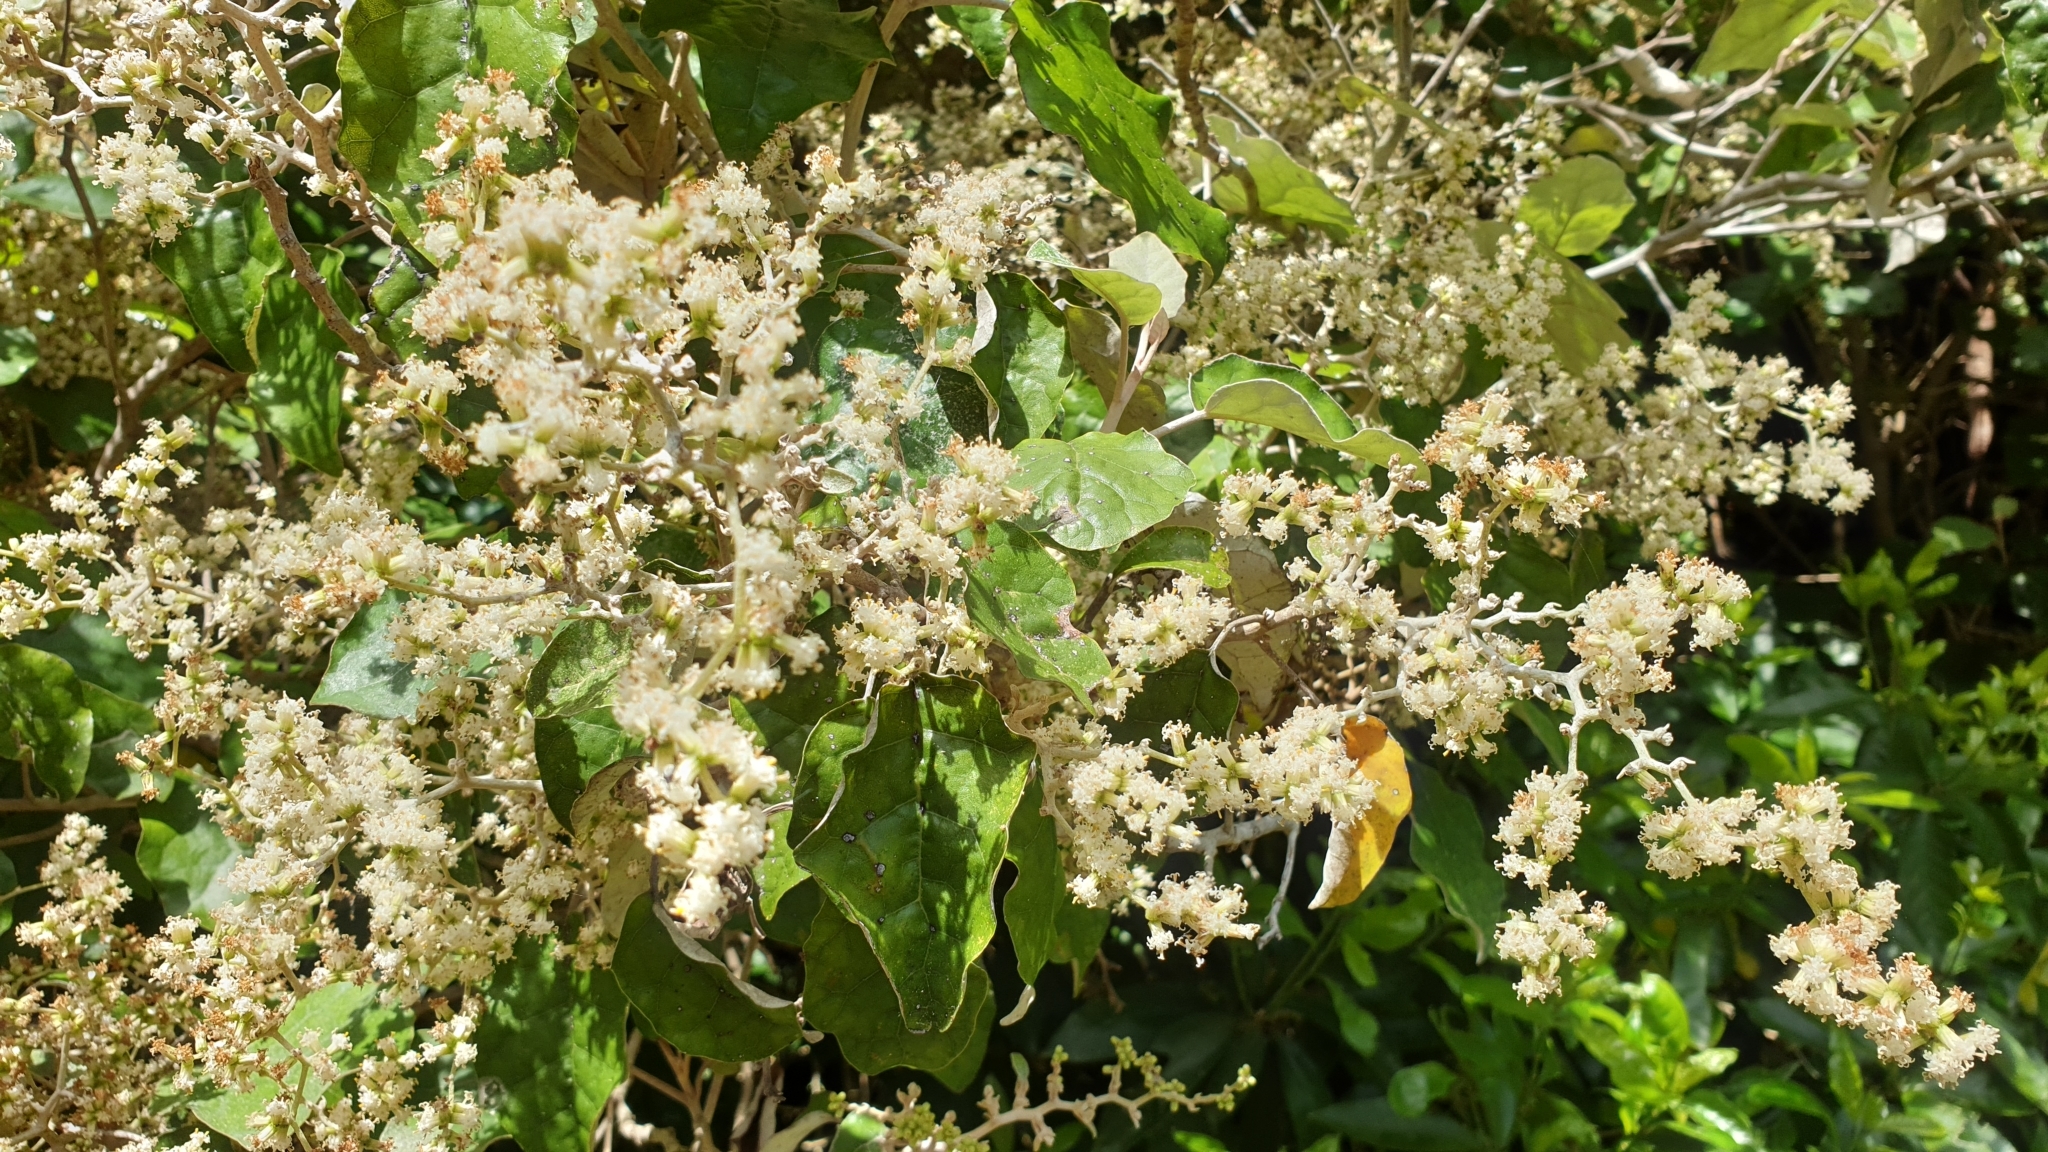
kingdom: Plantae
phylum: Tracheophyta
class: Magnoliopsida
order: Asterales
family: Asteraceae
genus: Brachyglottis
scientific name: Brachyglottis repanda
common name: Hedge ragwort
